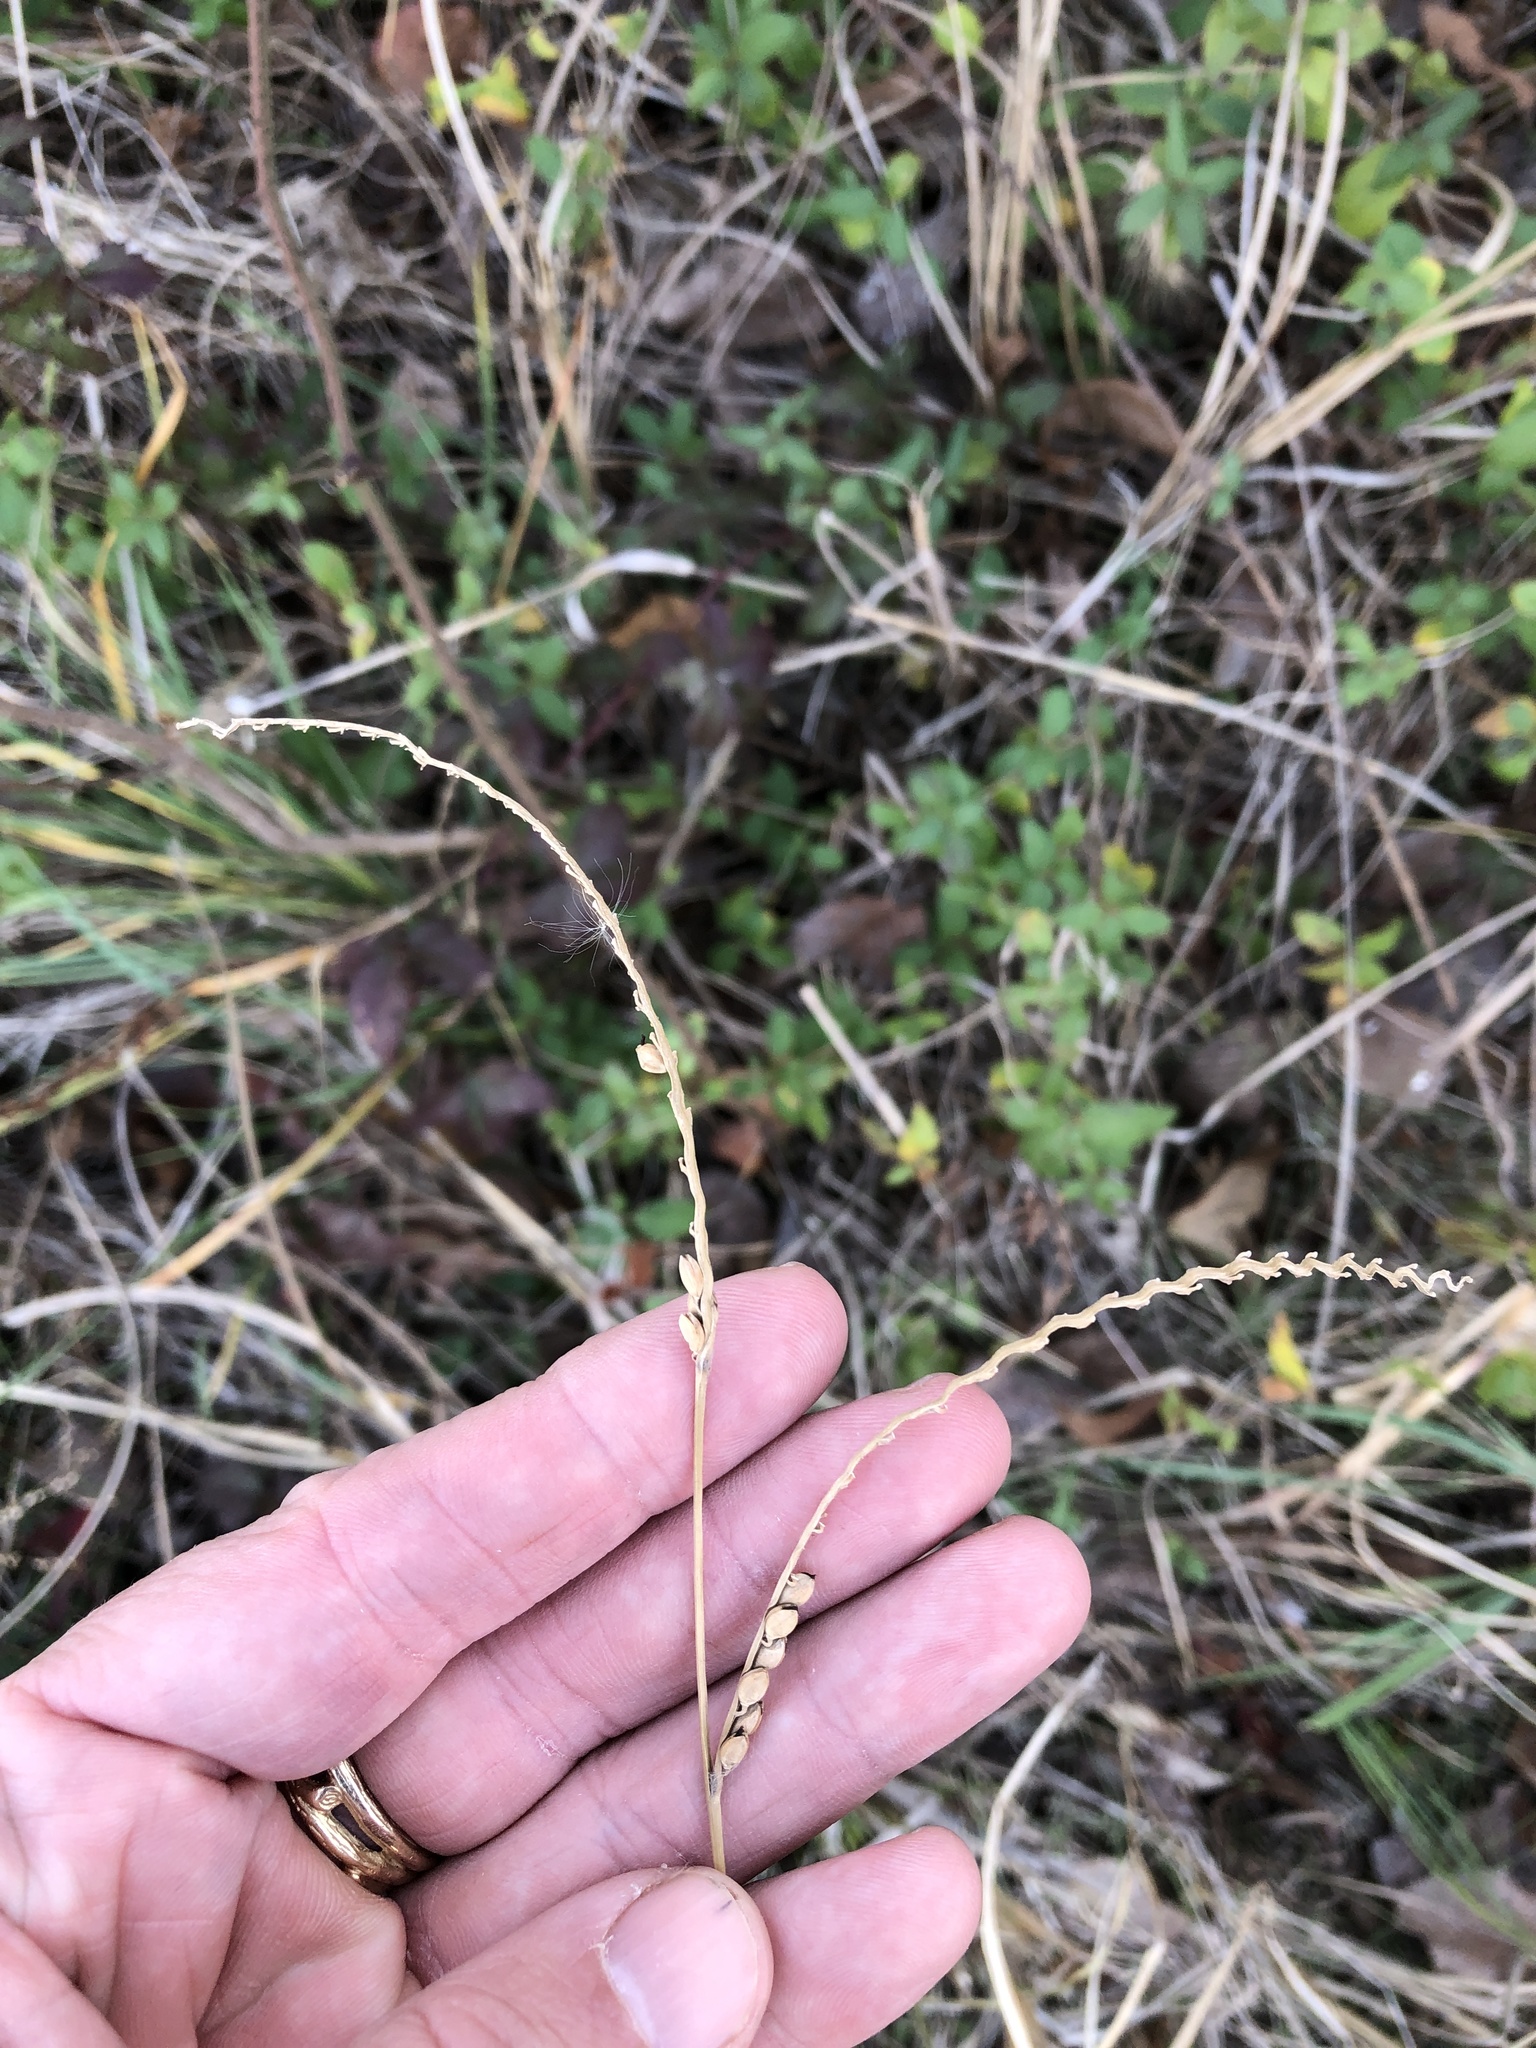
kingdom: Plantae
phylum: Tracheophyta
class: Liliopsida
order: Poales
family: Poaceae
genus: Paspalum
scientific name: Paspalum floridanum
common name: Florida paspalum
